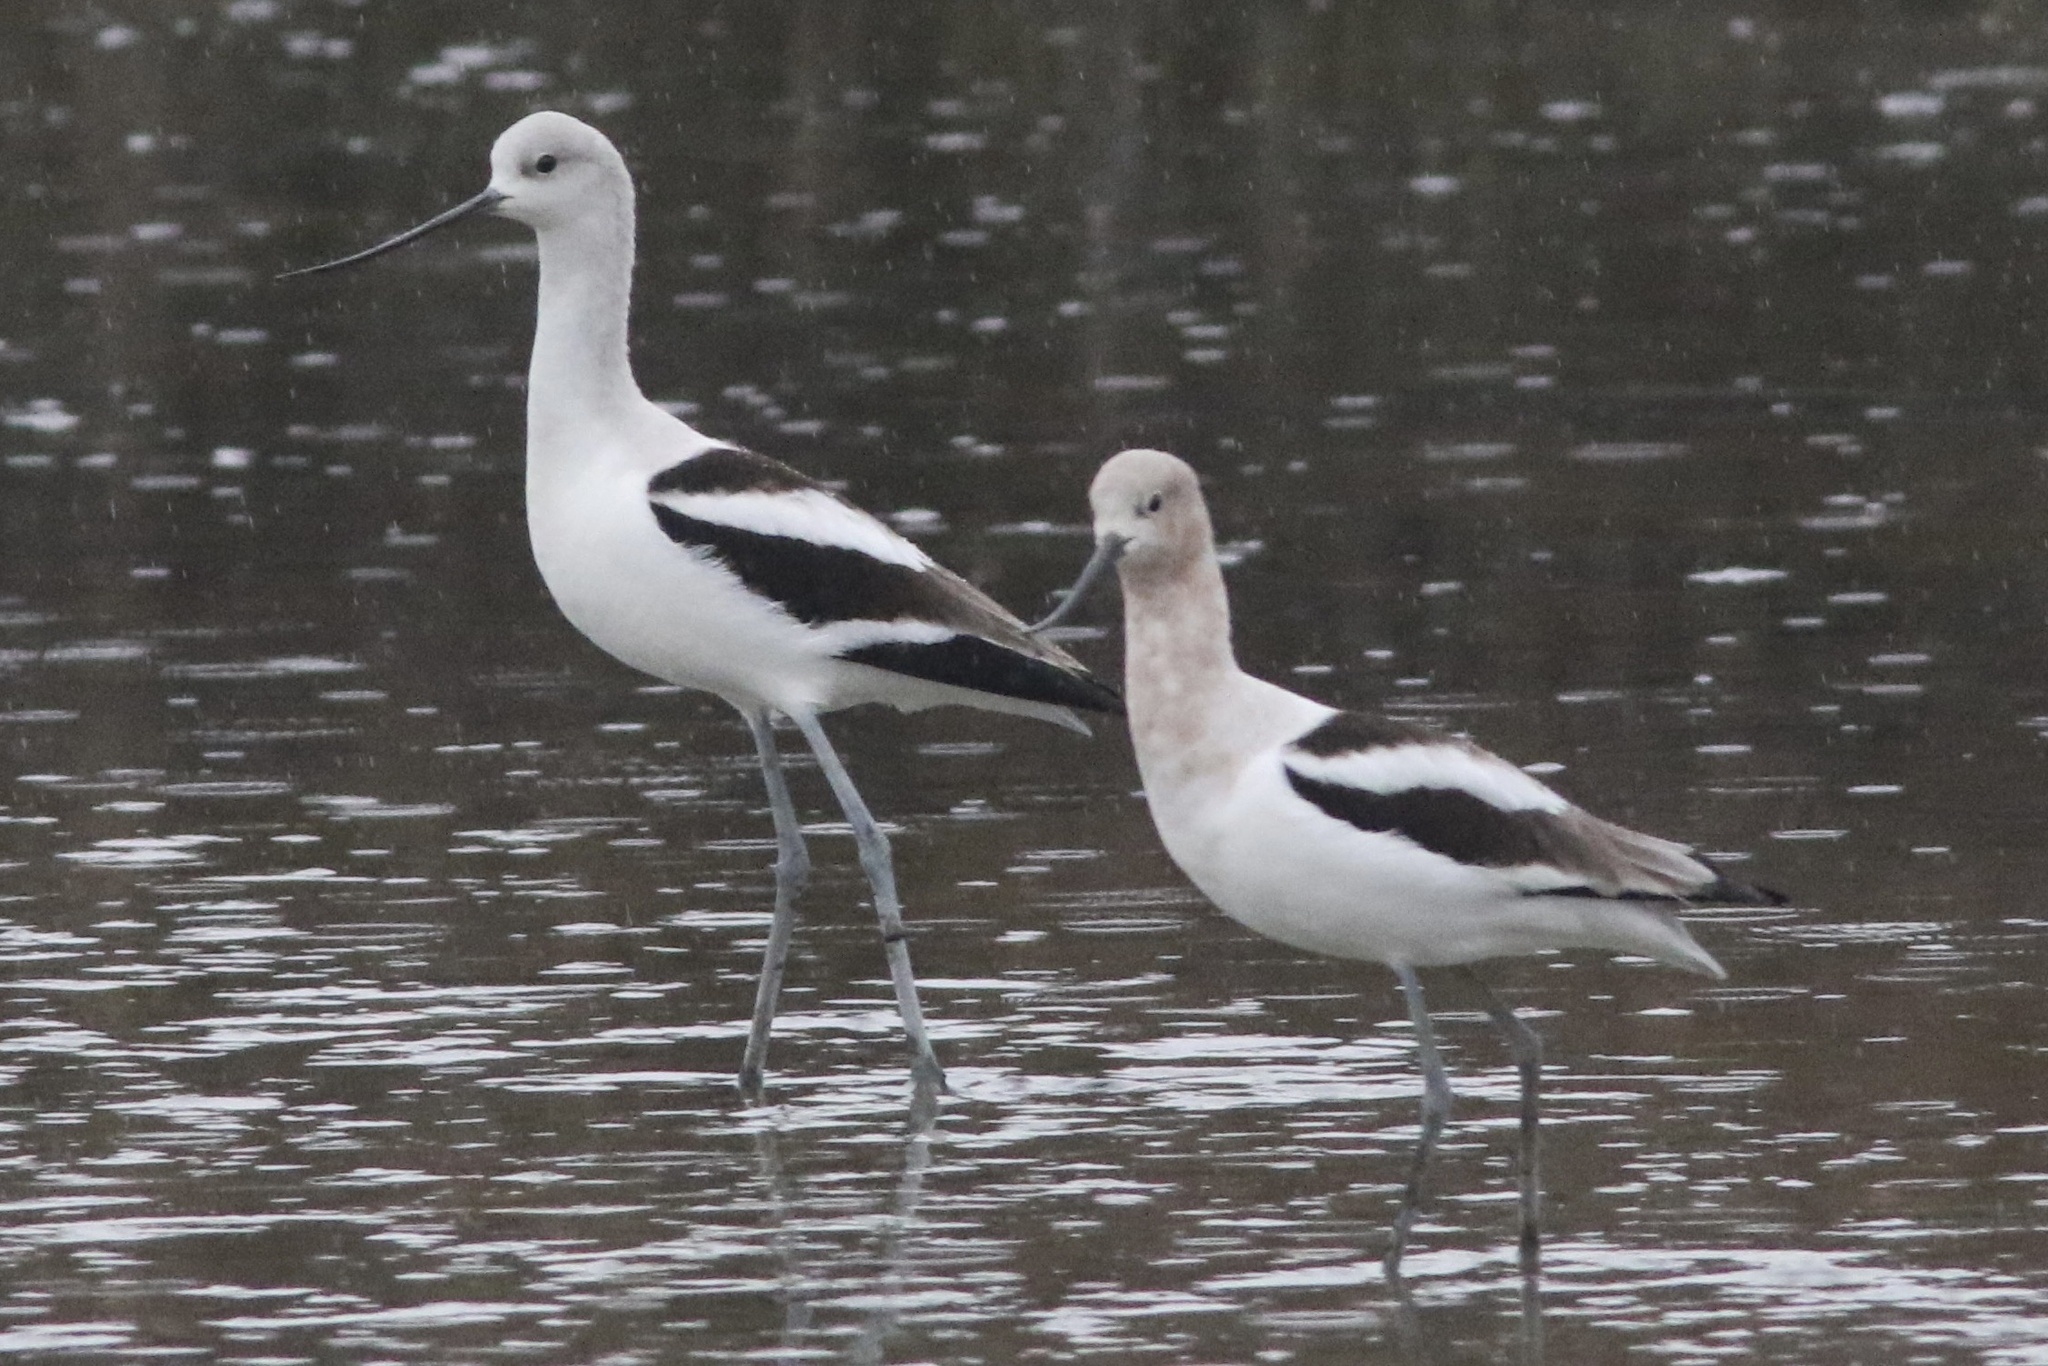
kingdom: Animalia
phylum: Chordata
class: Aves
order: Charadriiformes
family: Recurvirostridae
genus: Recurvirostra
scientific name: Recurvirostra americana
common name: American avocet
